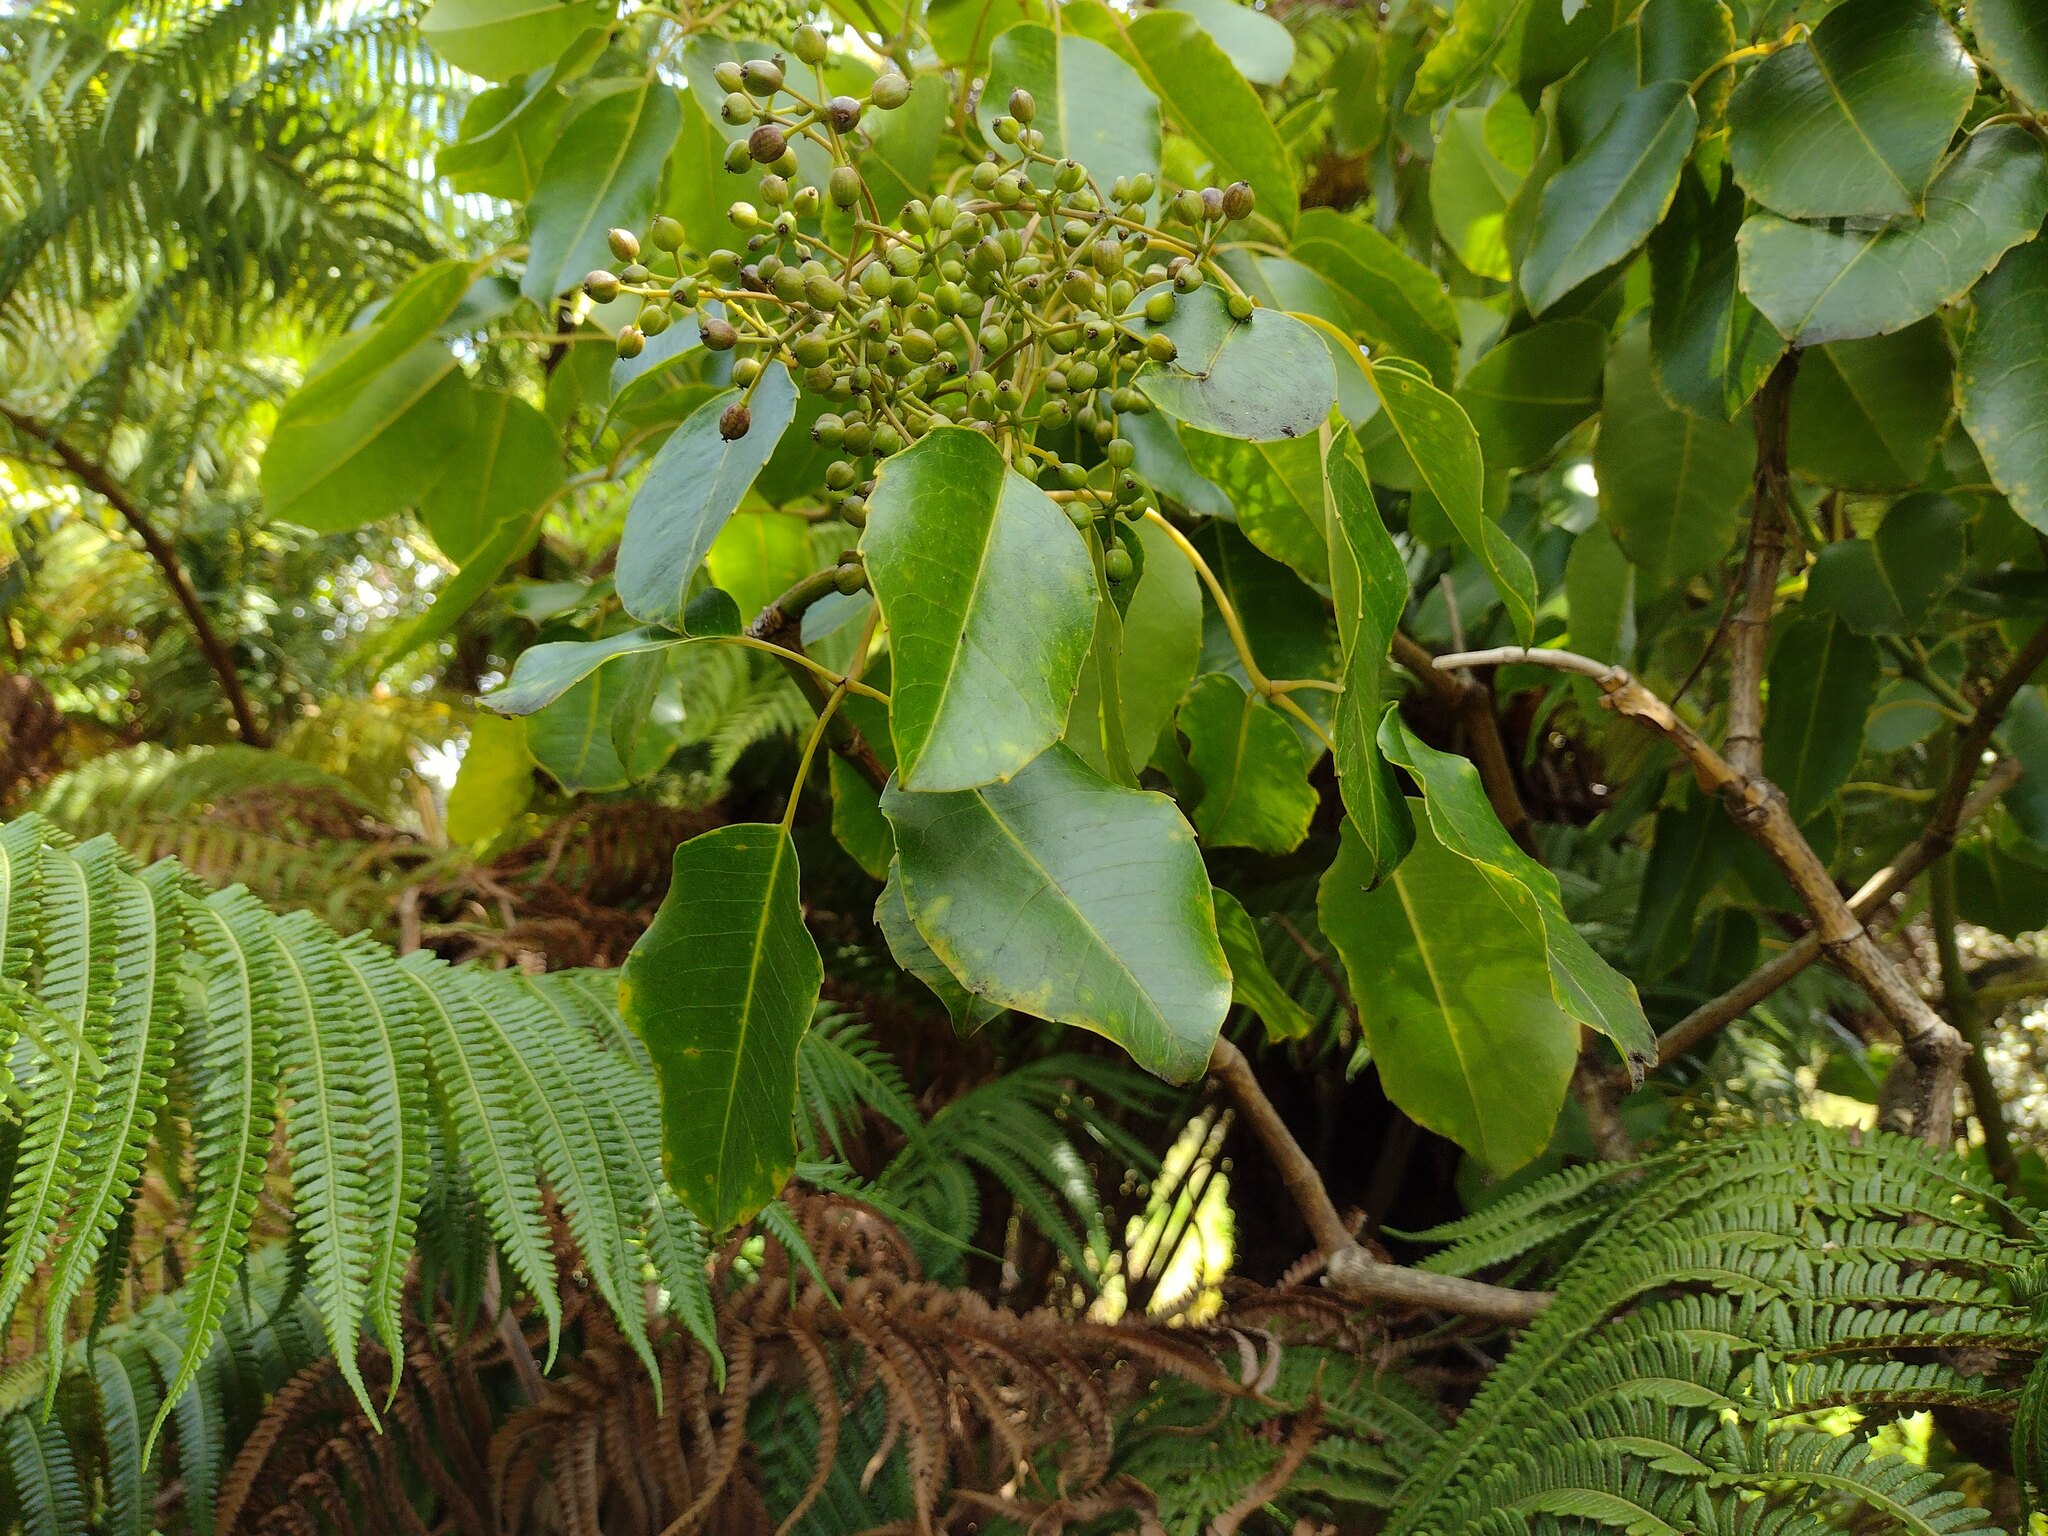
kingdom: Plantae
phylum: Tracheophyta
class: Magnoliopsida
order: Apiales
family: Araliaceae
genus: Cheirodendron
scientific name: Cheirodendron trigynum
